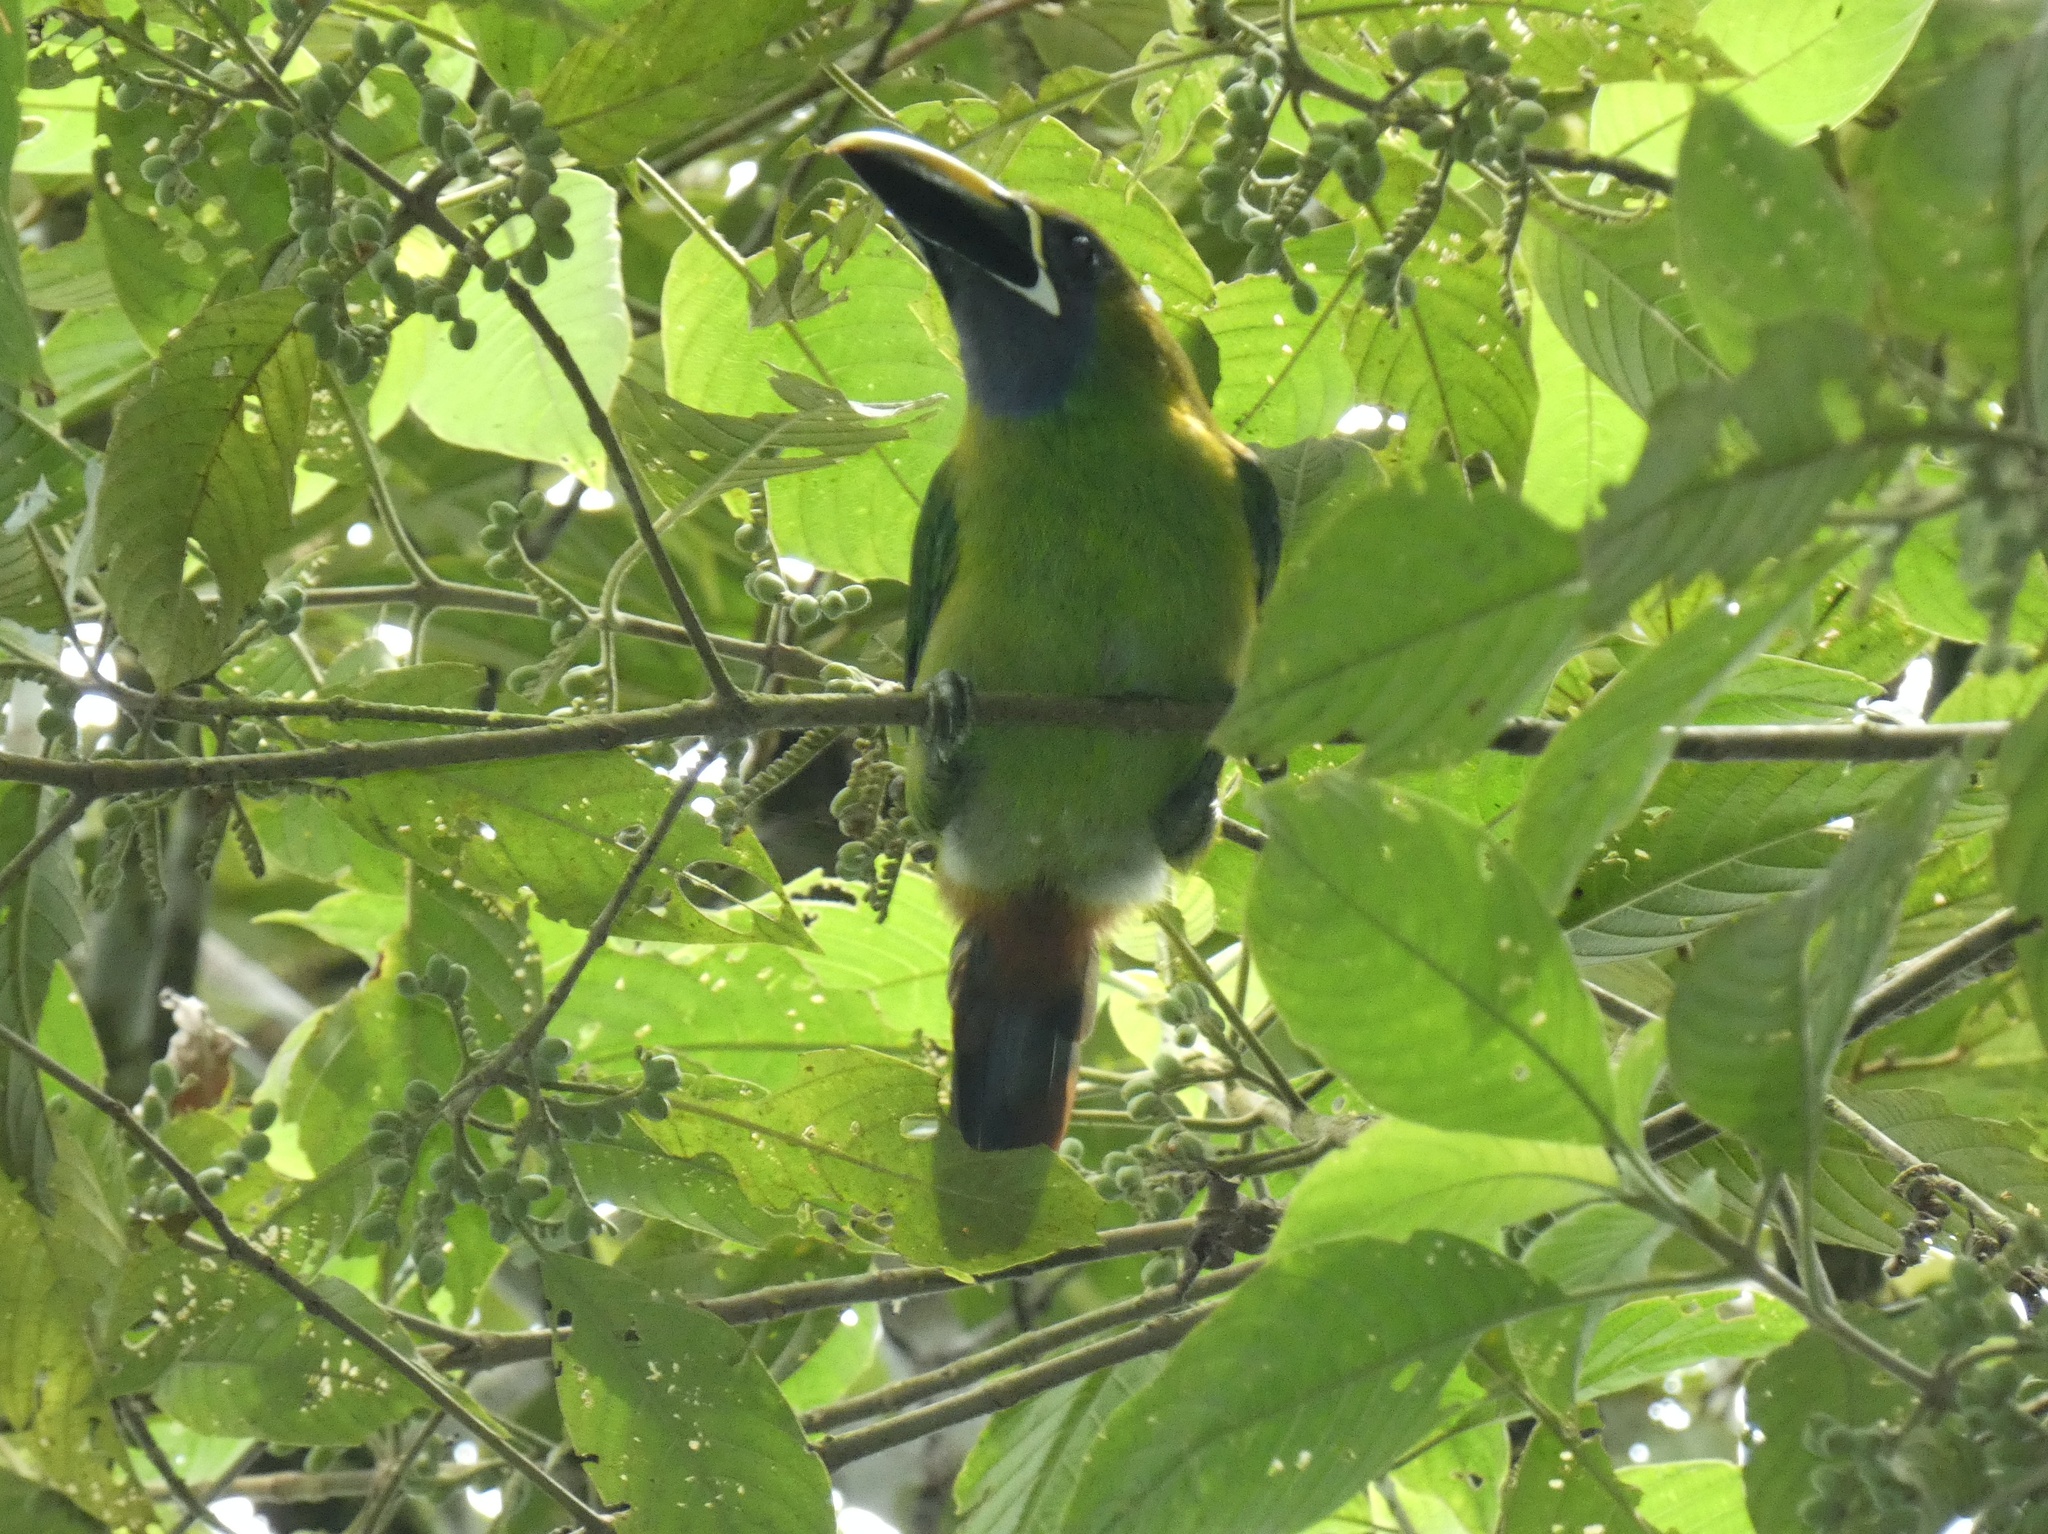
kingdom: Animalia
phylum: Chordata
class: Aves
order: Piciformes
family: Ramphastidae
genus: Aulacorhynchus
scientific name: Aulacorhynchus prasinus
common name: Emerald toucanet
